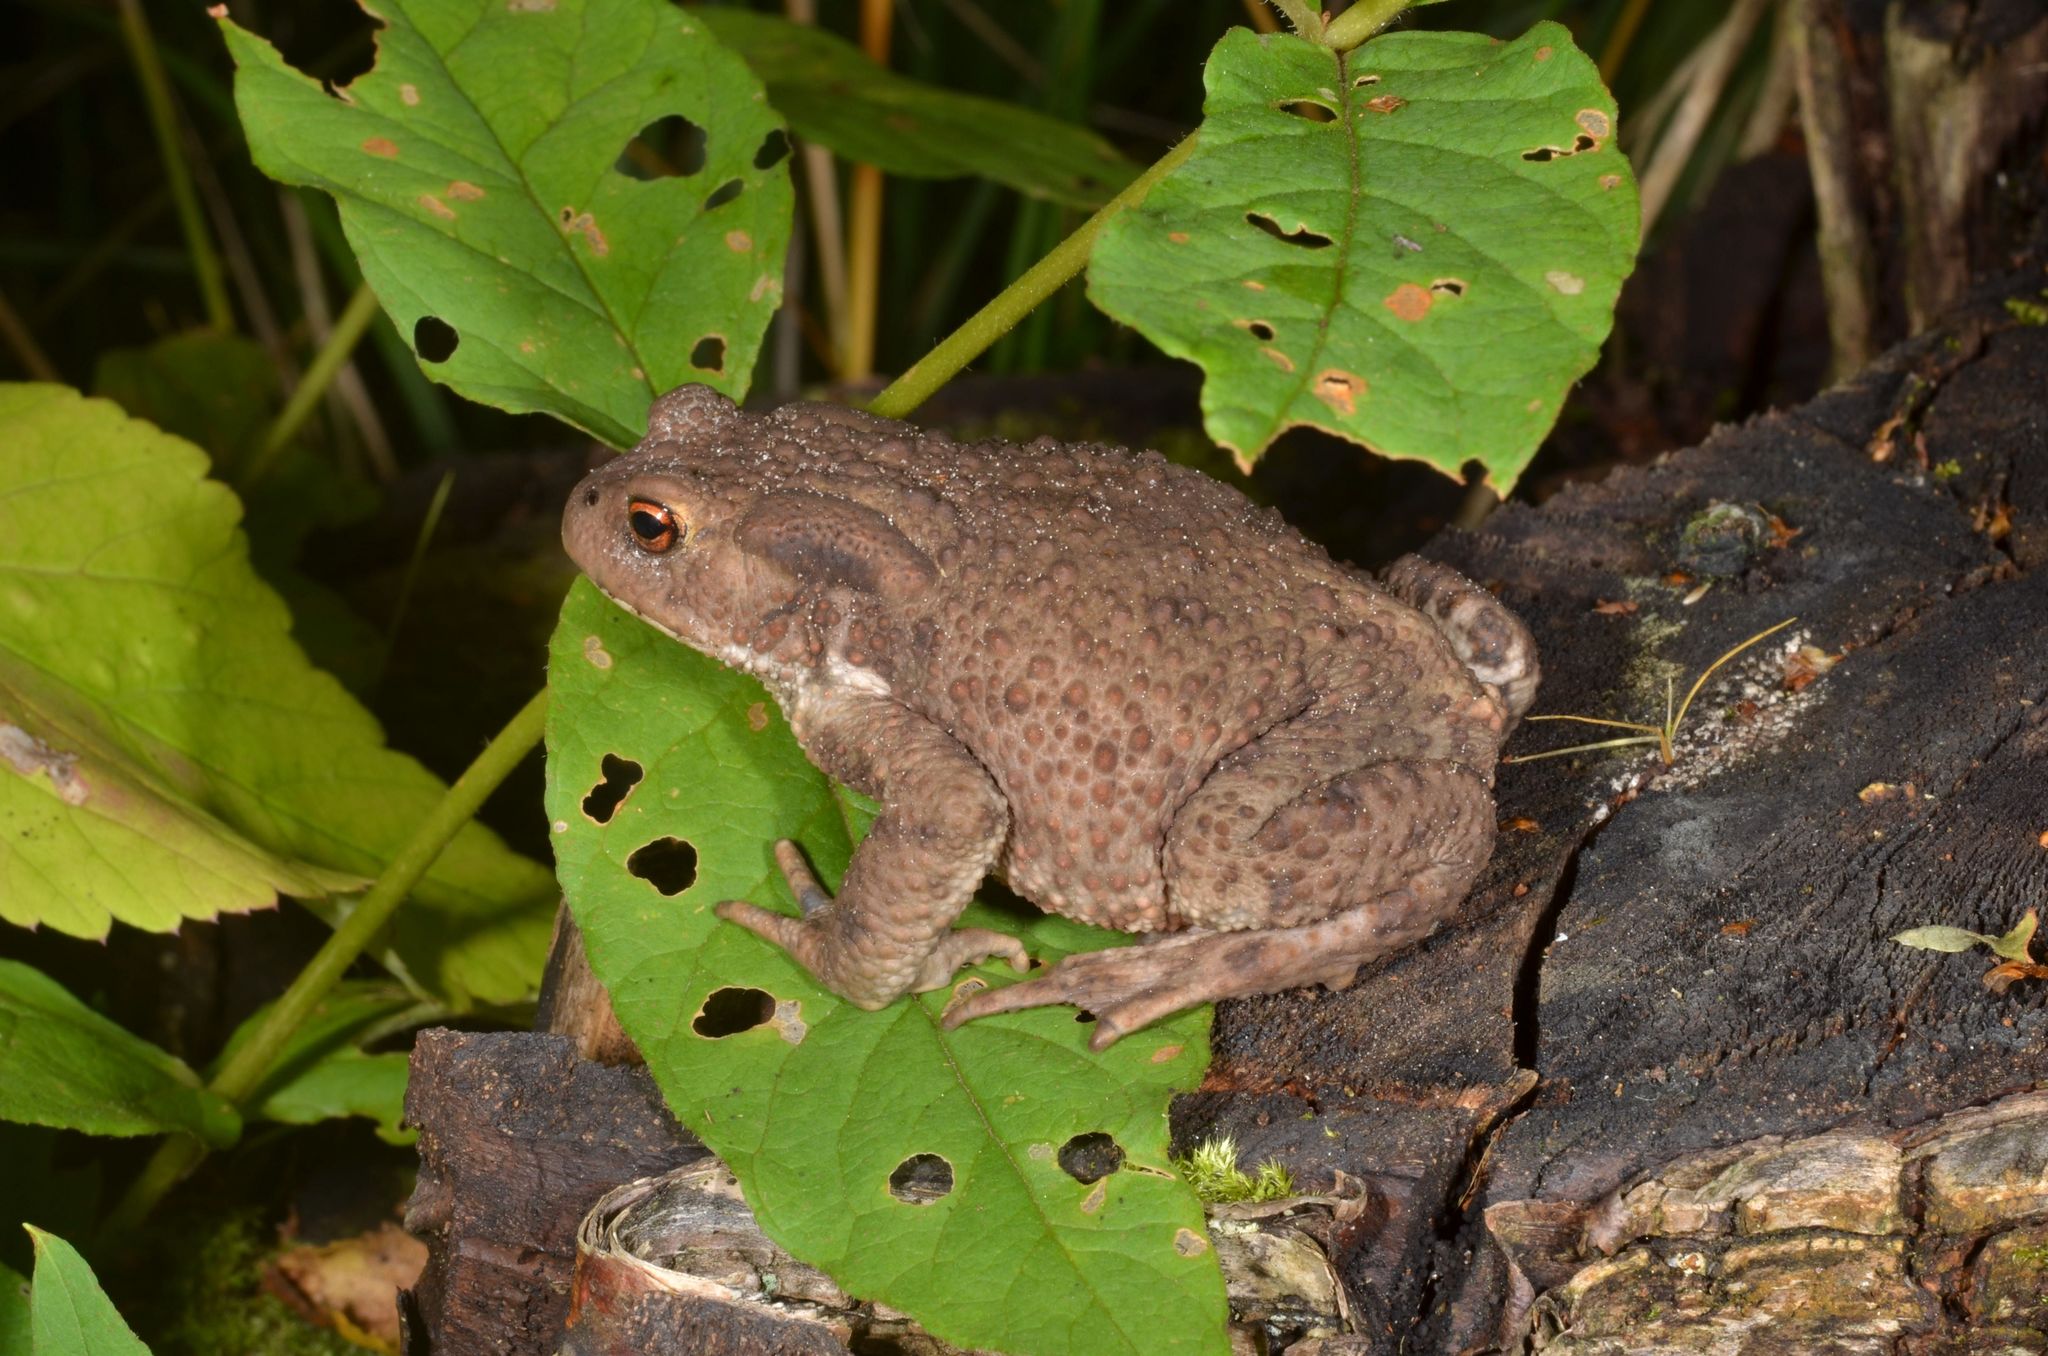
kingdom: Animalia
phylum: Chordata
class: Amphibia
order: Anura
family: Bufonidae
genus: Bufo
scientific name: Bufo bufo
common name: Common toad
